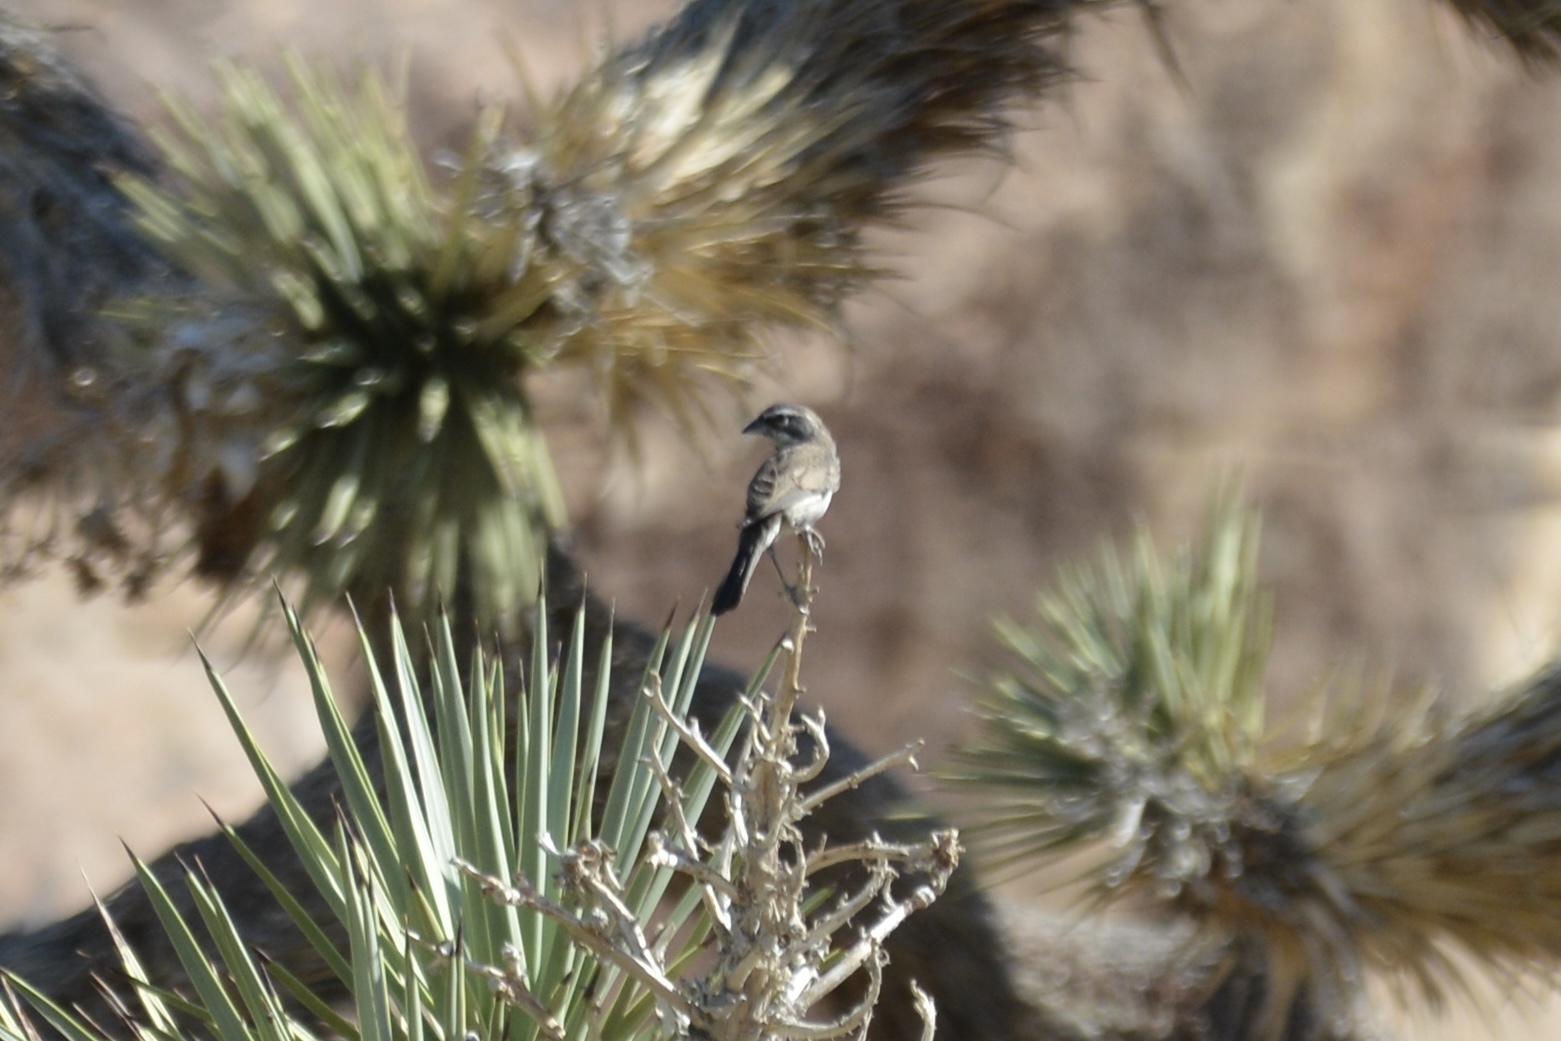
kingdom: Animalia
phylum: Chordata
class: Aves
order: Passeriformes
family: Passerellidae
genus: Amphispiza
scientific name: Amphispiza bilineata
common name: Black-throated sparrow
